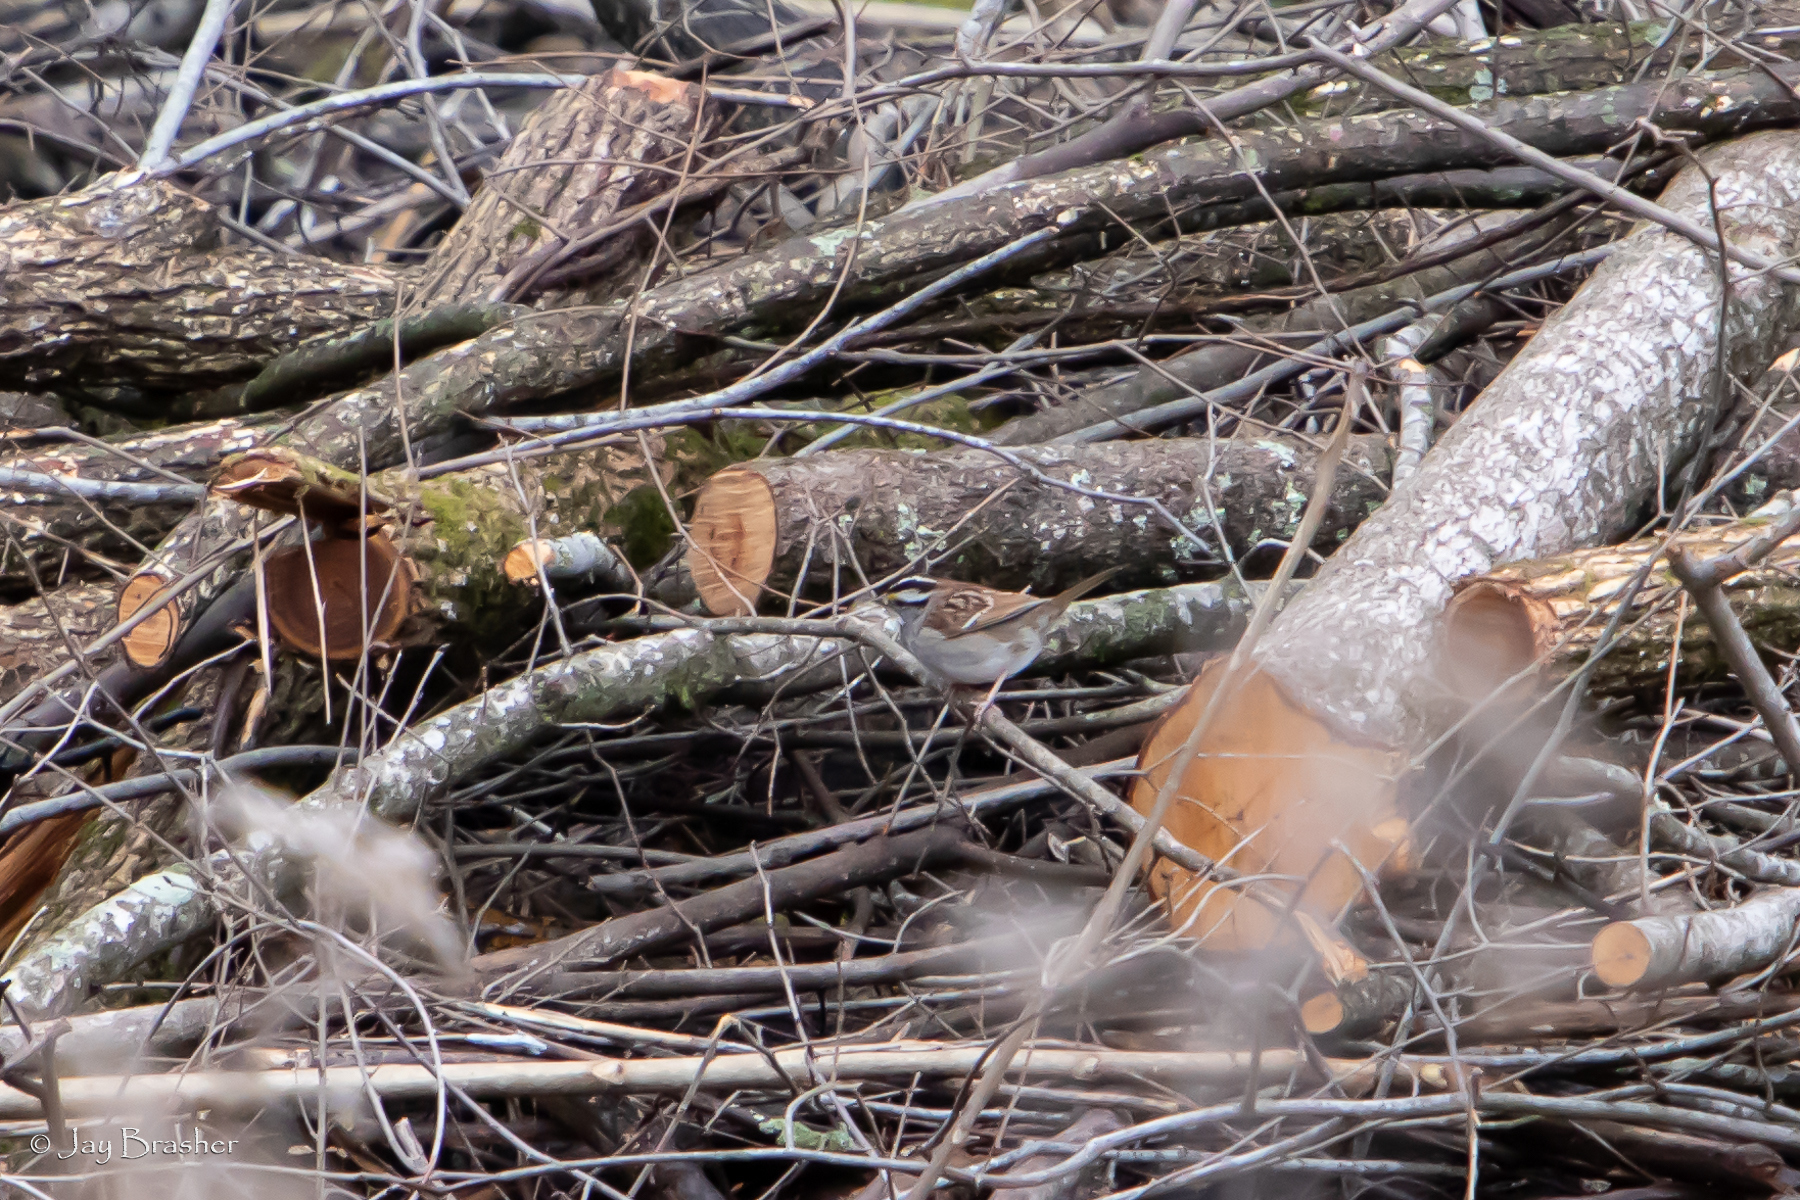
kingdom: Animalia
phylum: Chordata
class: Aves
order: Passeriformes
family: Passerellidae
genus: Zonotrichia
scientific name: Zonotrichia albicollis
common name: White-throated sparrow
